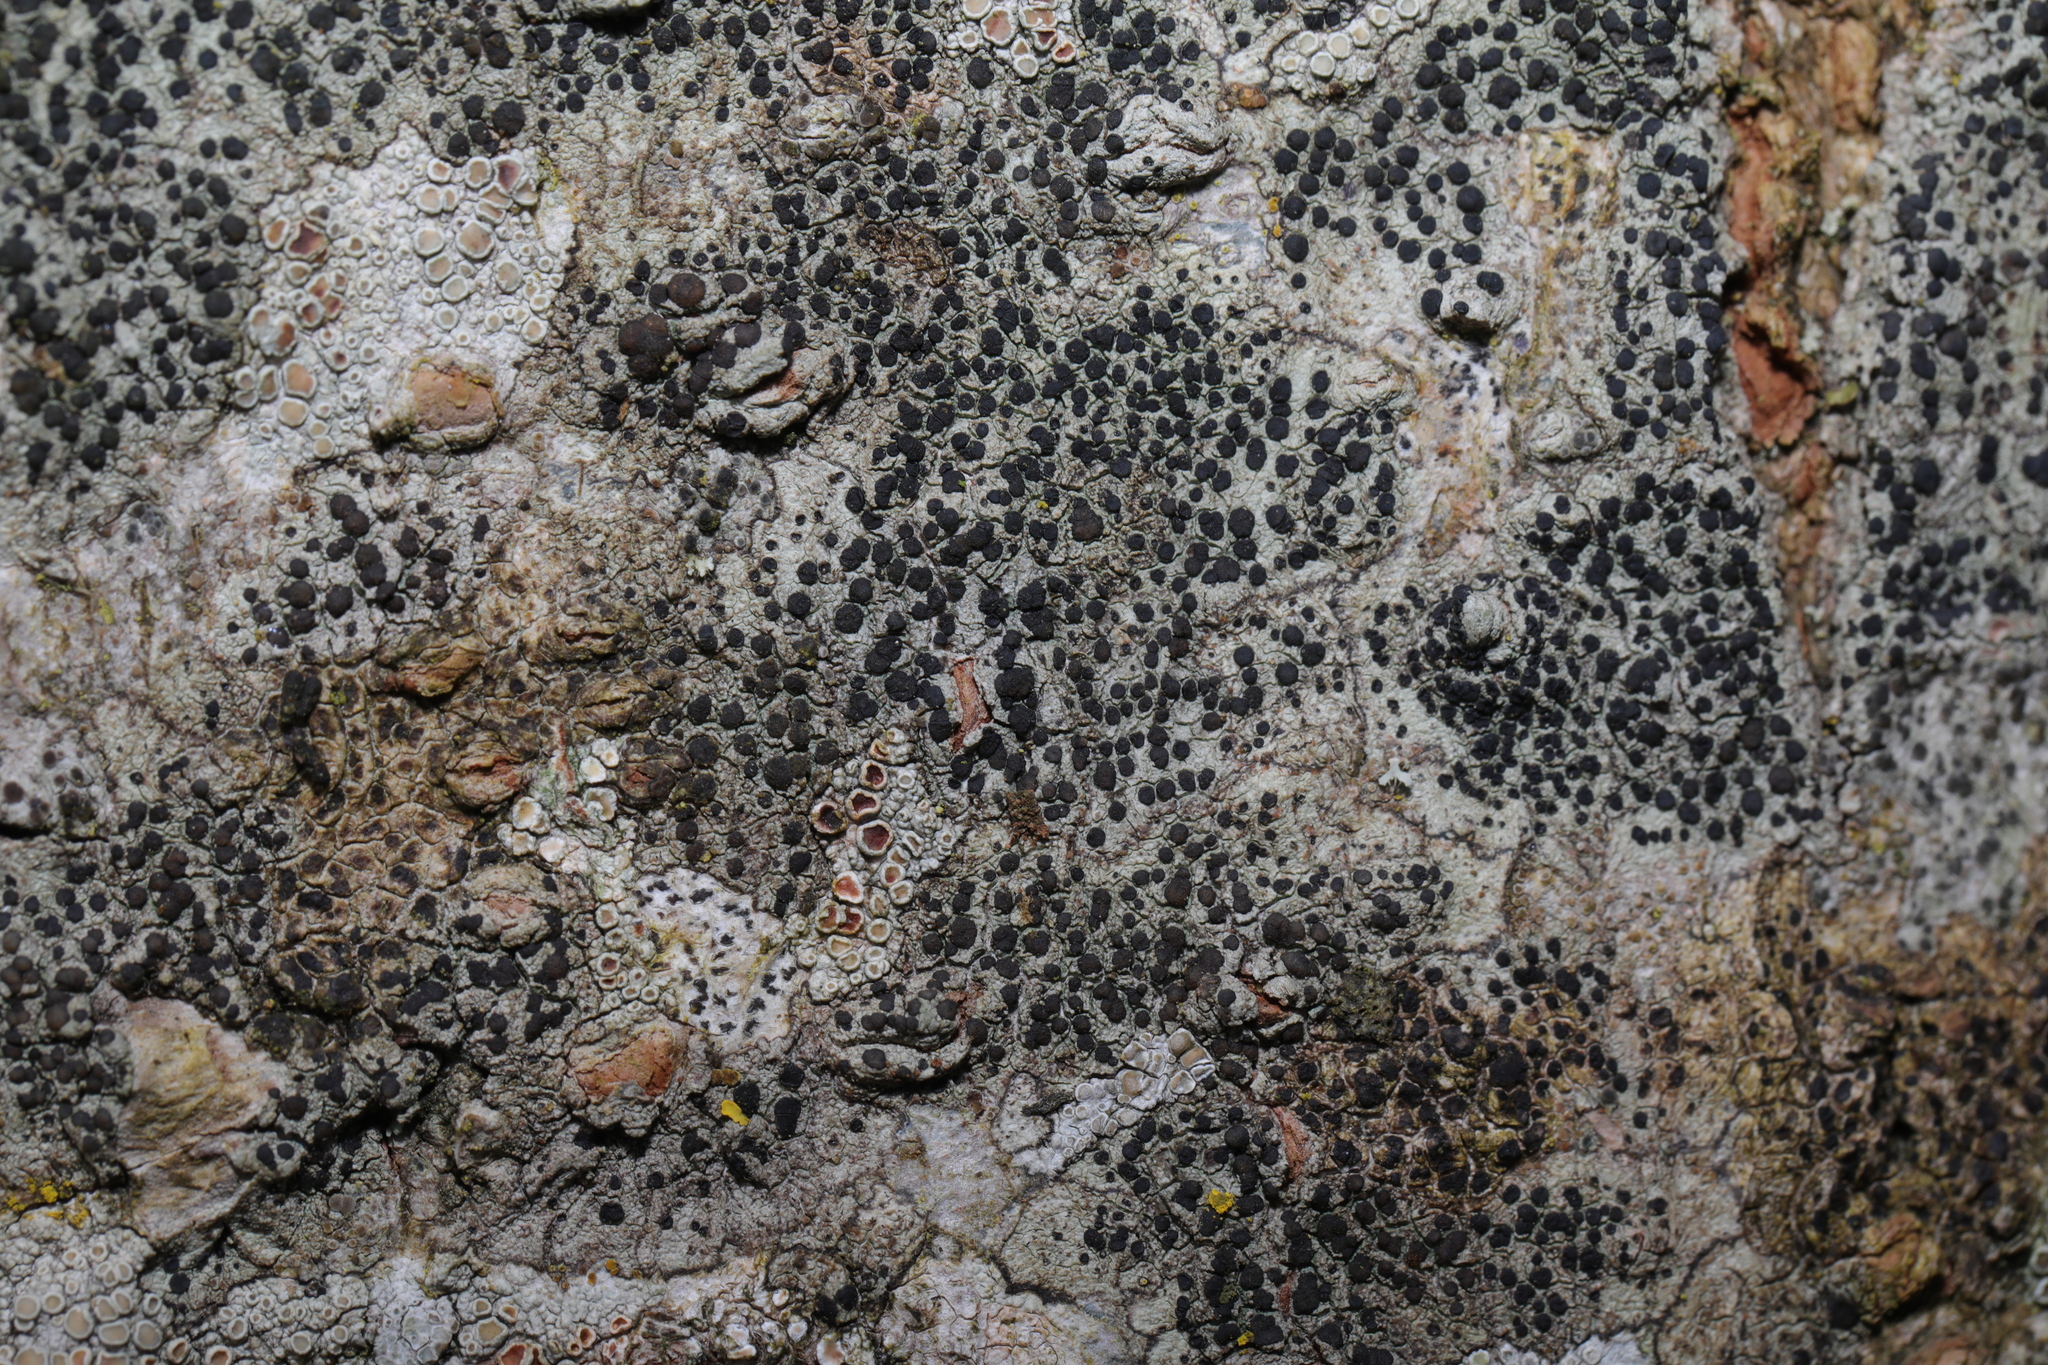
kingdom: Fungi
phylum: Ascomycota
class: Lecanoromycetes
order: Lecanorales
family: Lecanoraceae
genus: Lecidella
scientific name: Lecidella elaeochroma
